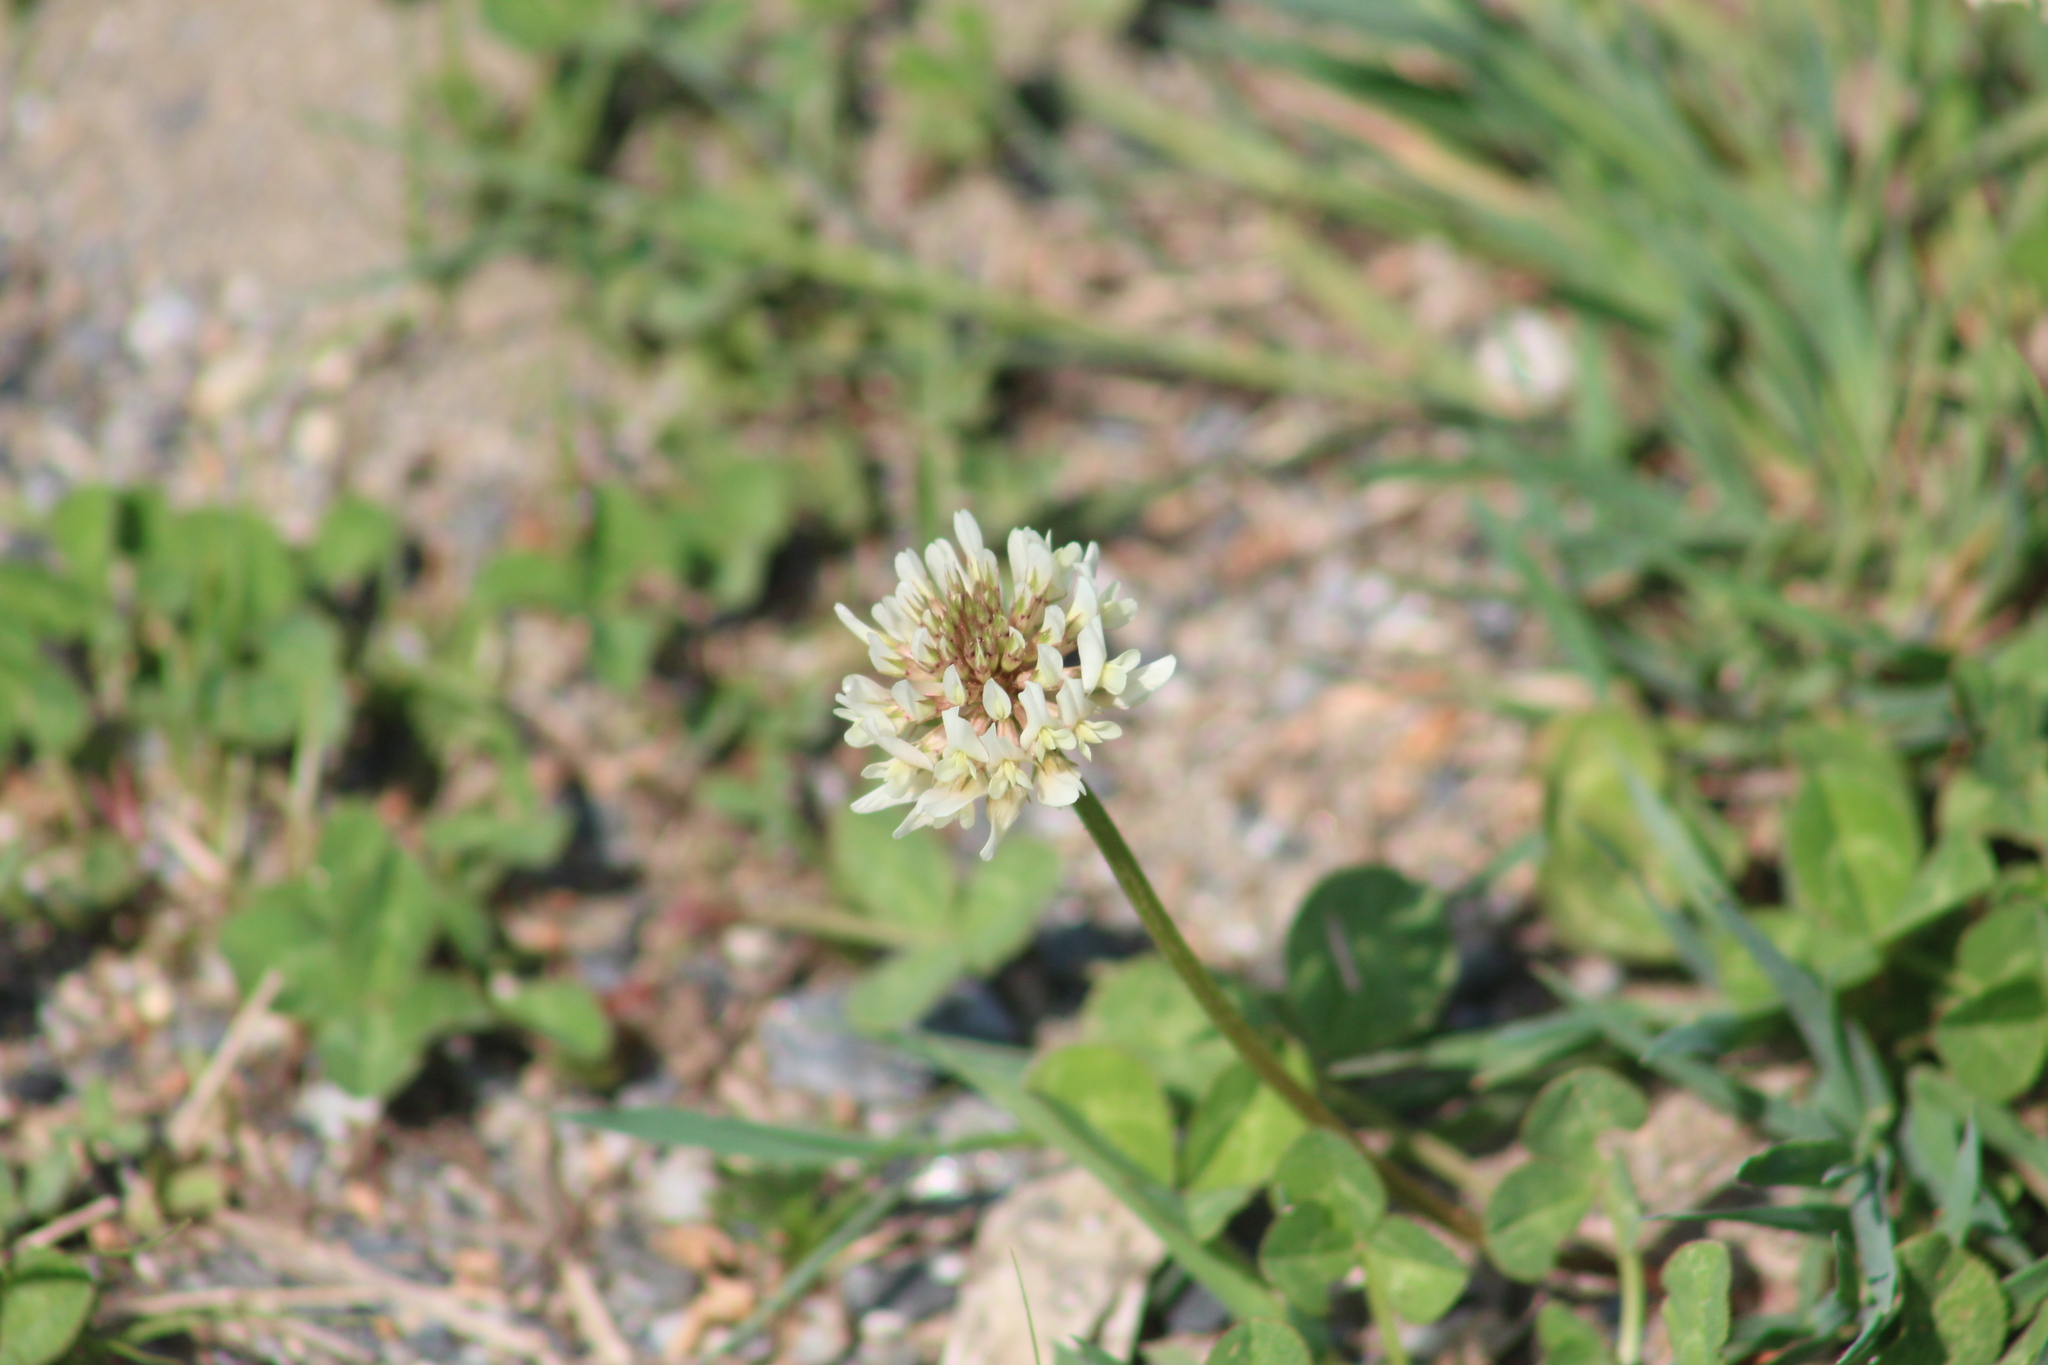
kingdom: Plantae
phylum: Tracheophyta
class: Magnoliopsida
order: Fabales
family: Fabaceae
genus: Trifolium
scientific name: Trifolium repens
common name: White clover
